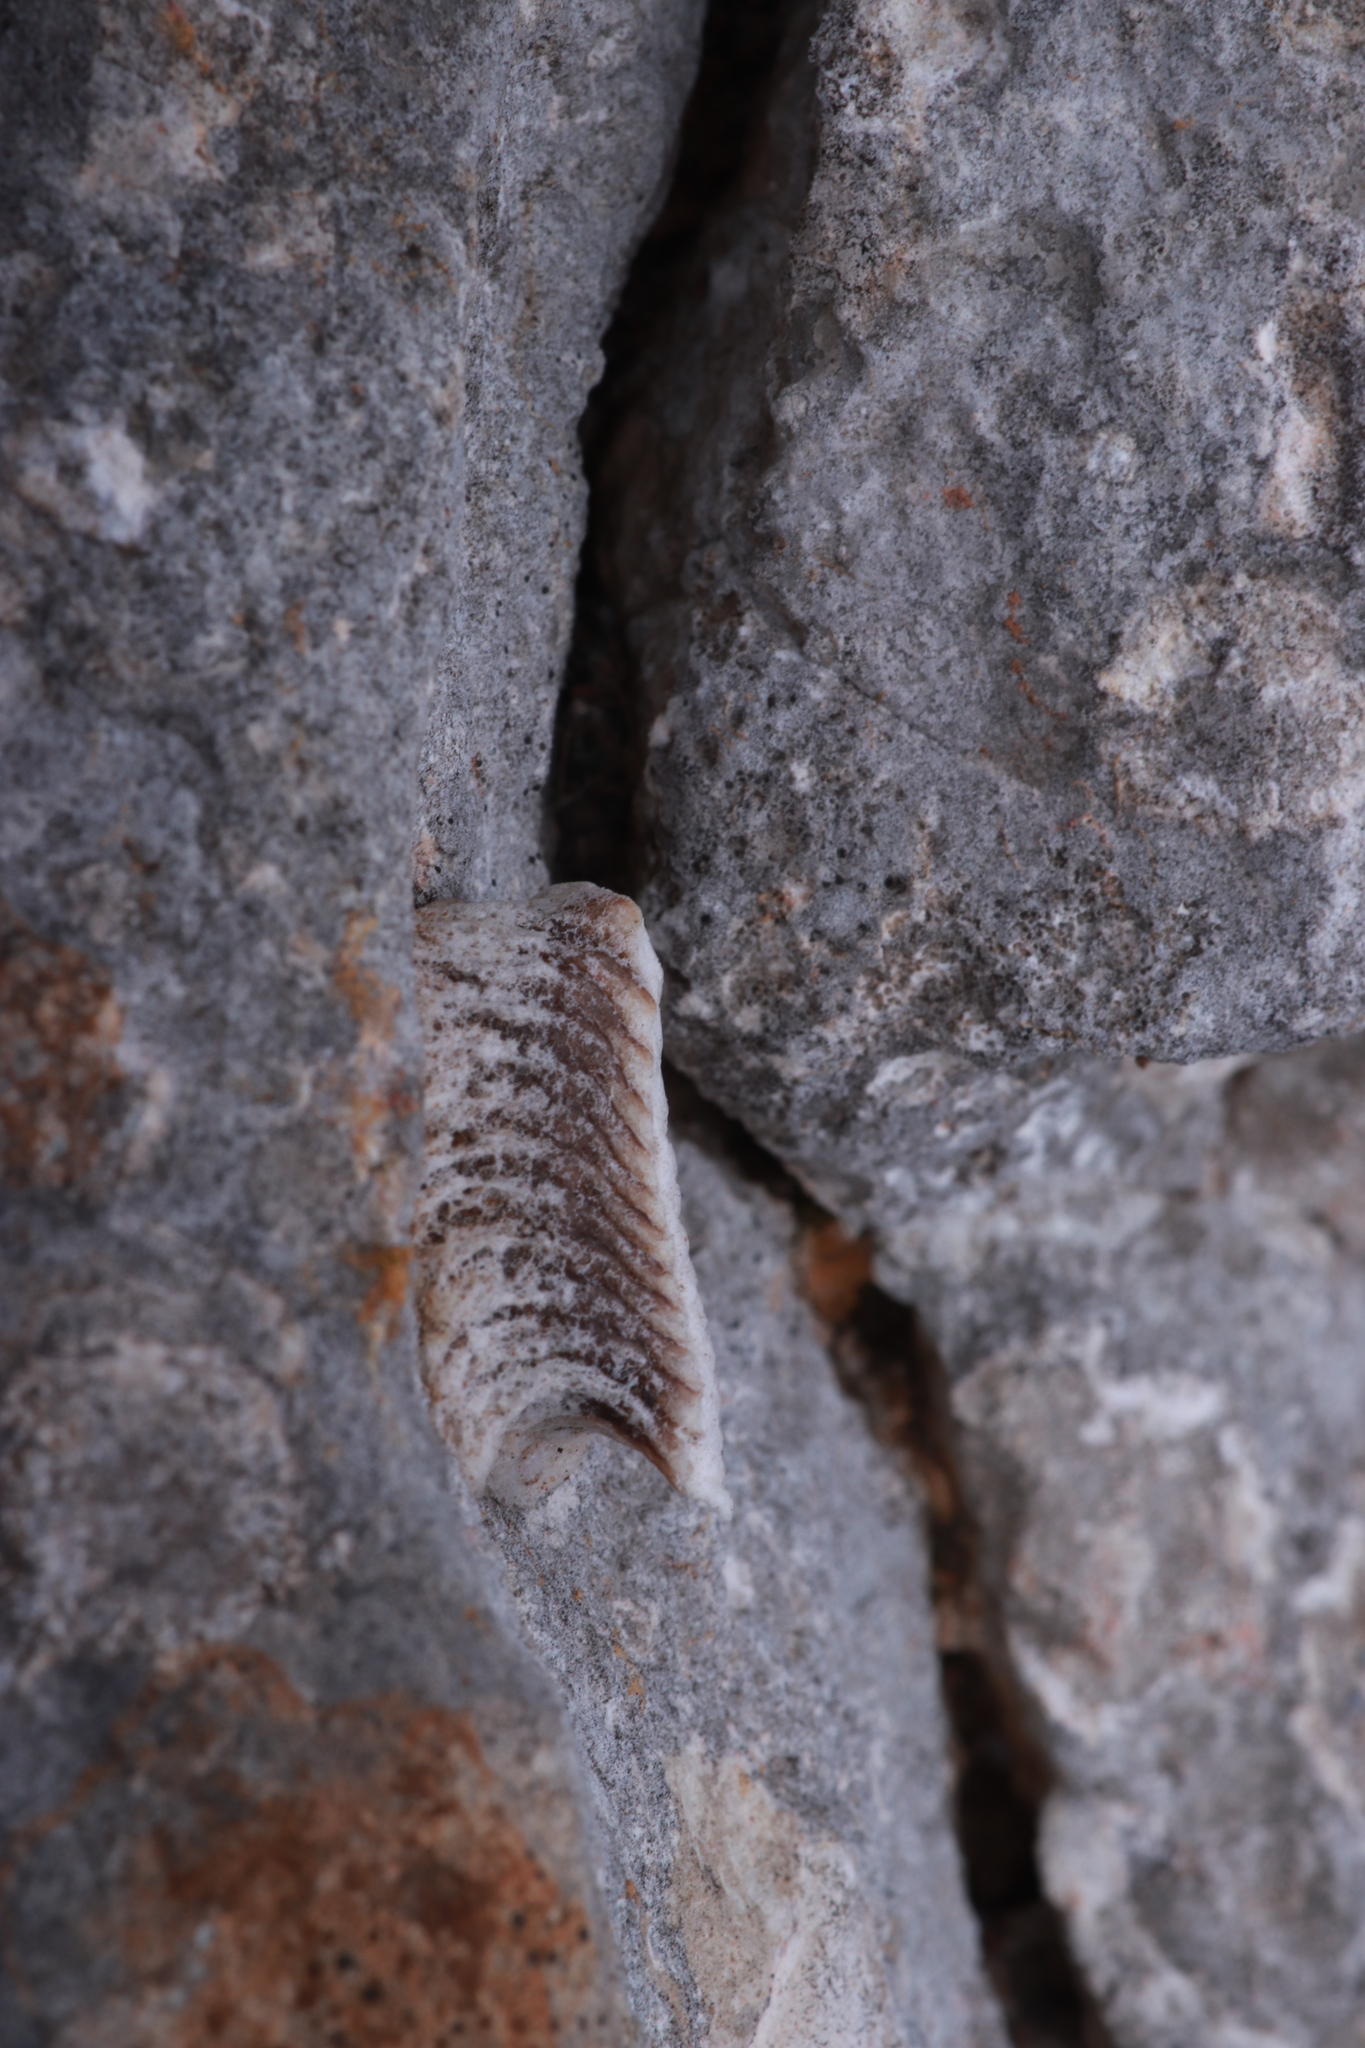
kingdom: Animalia
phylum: Arthropoda
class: Insecta
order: Mantodea
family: Eremiaphilidae
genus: Iris
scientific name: Iris oratoria
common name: Mediterranean mantis
